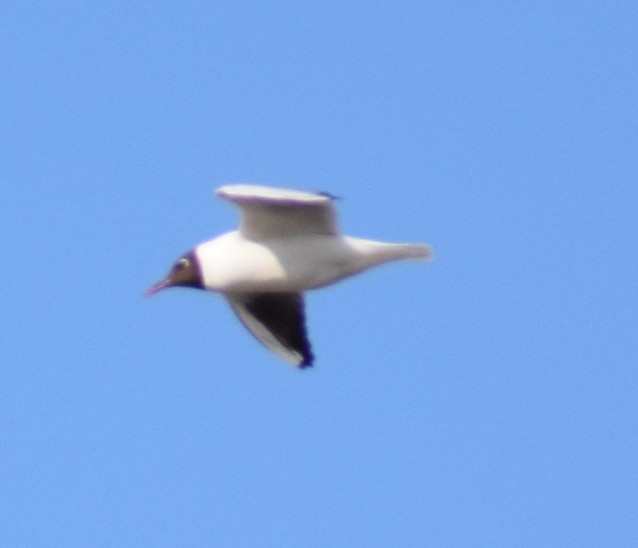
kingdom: Animalia
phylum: Chordata
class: Aves
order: Charadriiformes
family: Laridae
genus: Chroicocephalus
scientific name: Chroicocephalus ridibundus
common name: Black-headed gull
